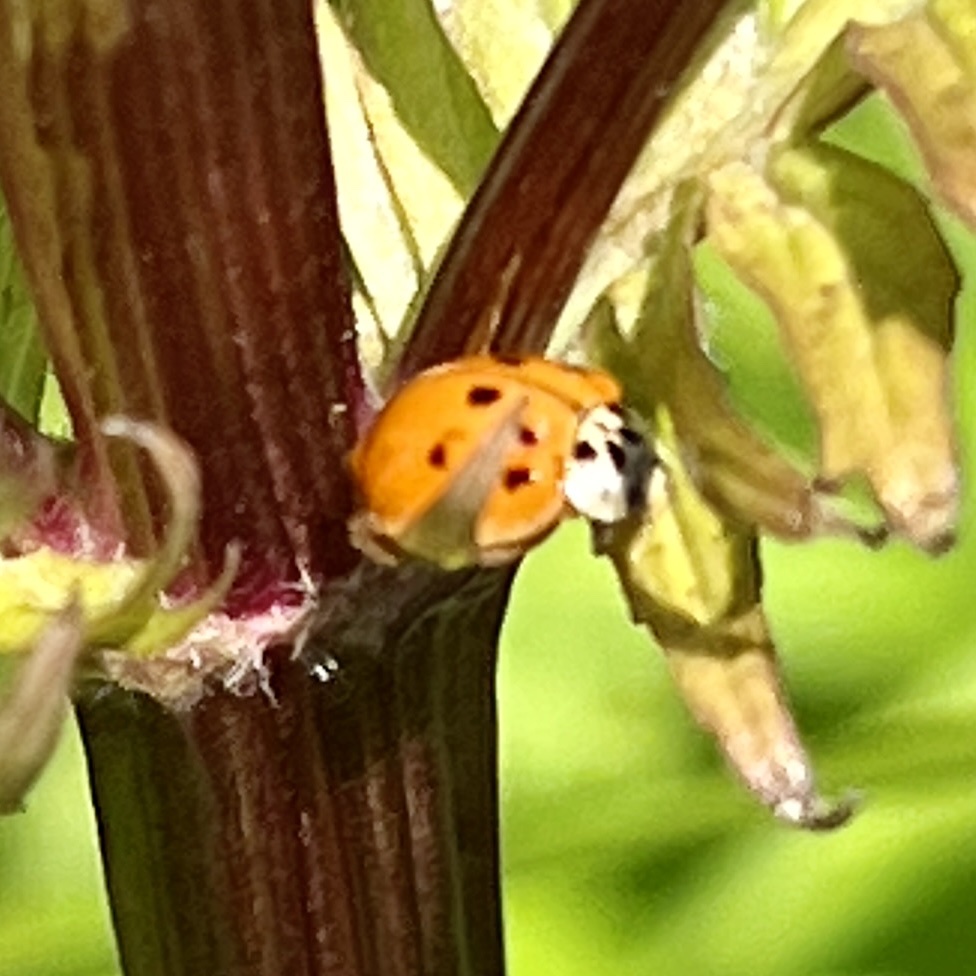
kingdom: Animalia
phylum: Arthropoda
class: Insecta
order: Coleoptera
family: Coccinellidae
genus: Harmonia
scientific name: Harmonia axyridis
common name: Harlequin ladybird
